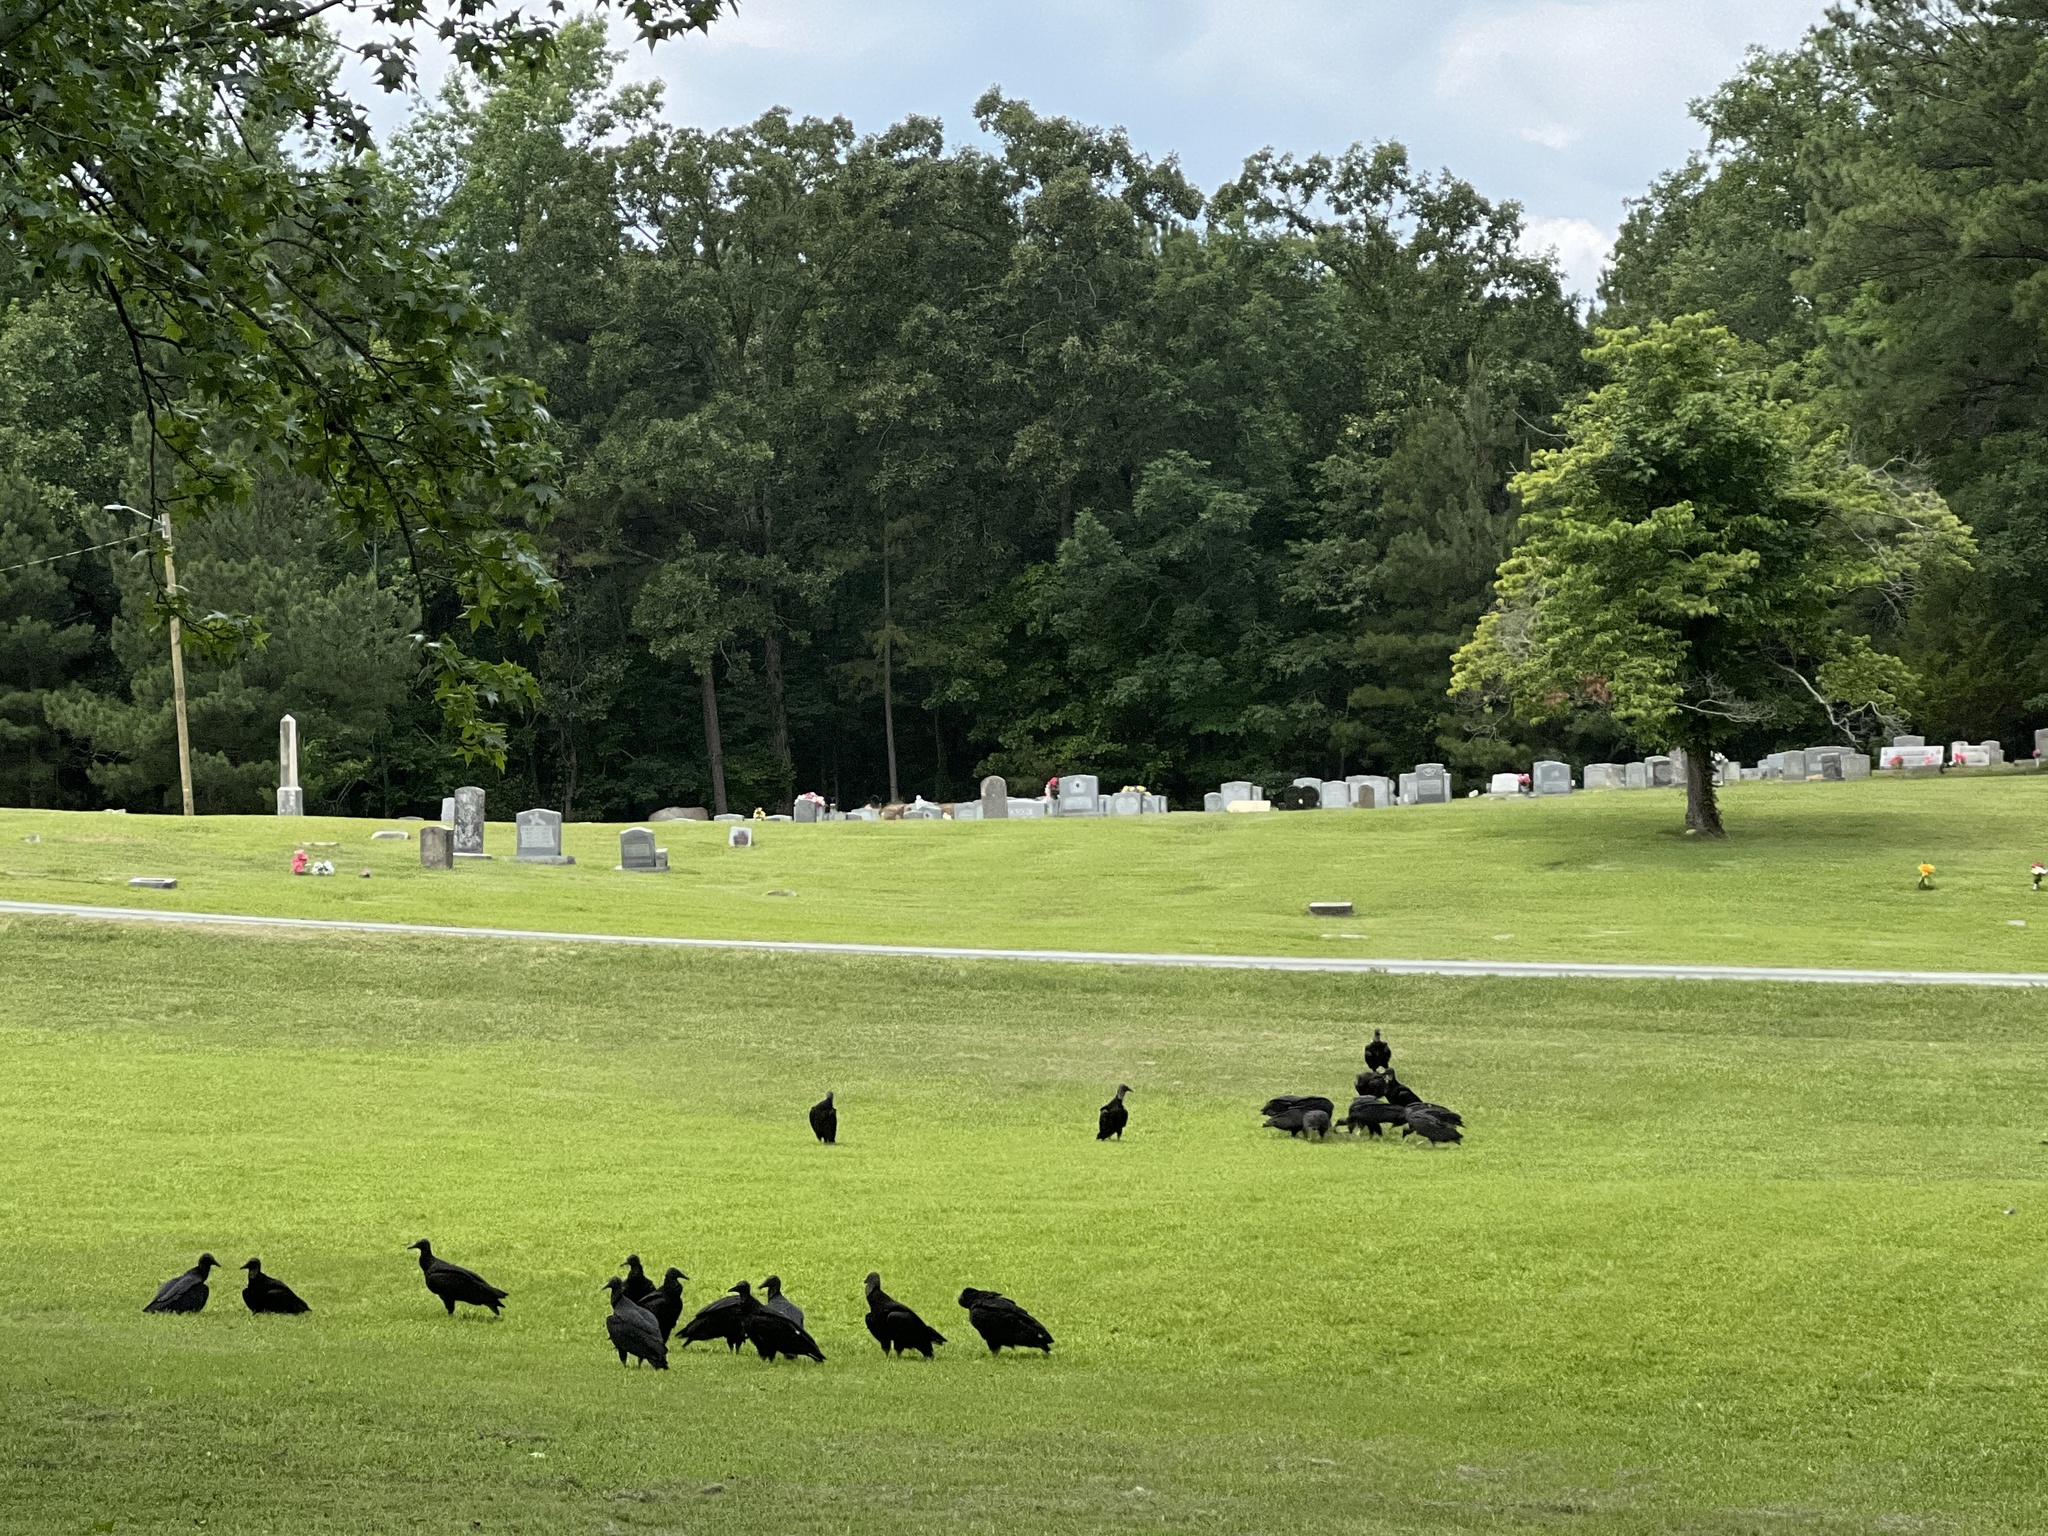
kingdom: Animalia
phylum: Chordata
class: Aves
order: Accipitriformes
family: Cathartidae
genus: Coragyps
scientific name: Coragyps atratus
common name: Black vulture
